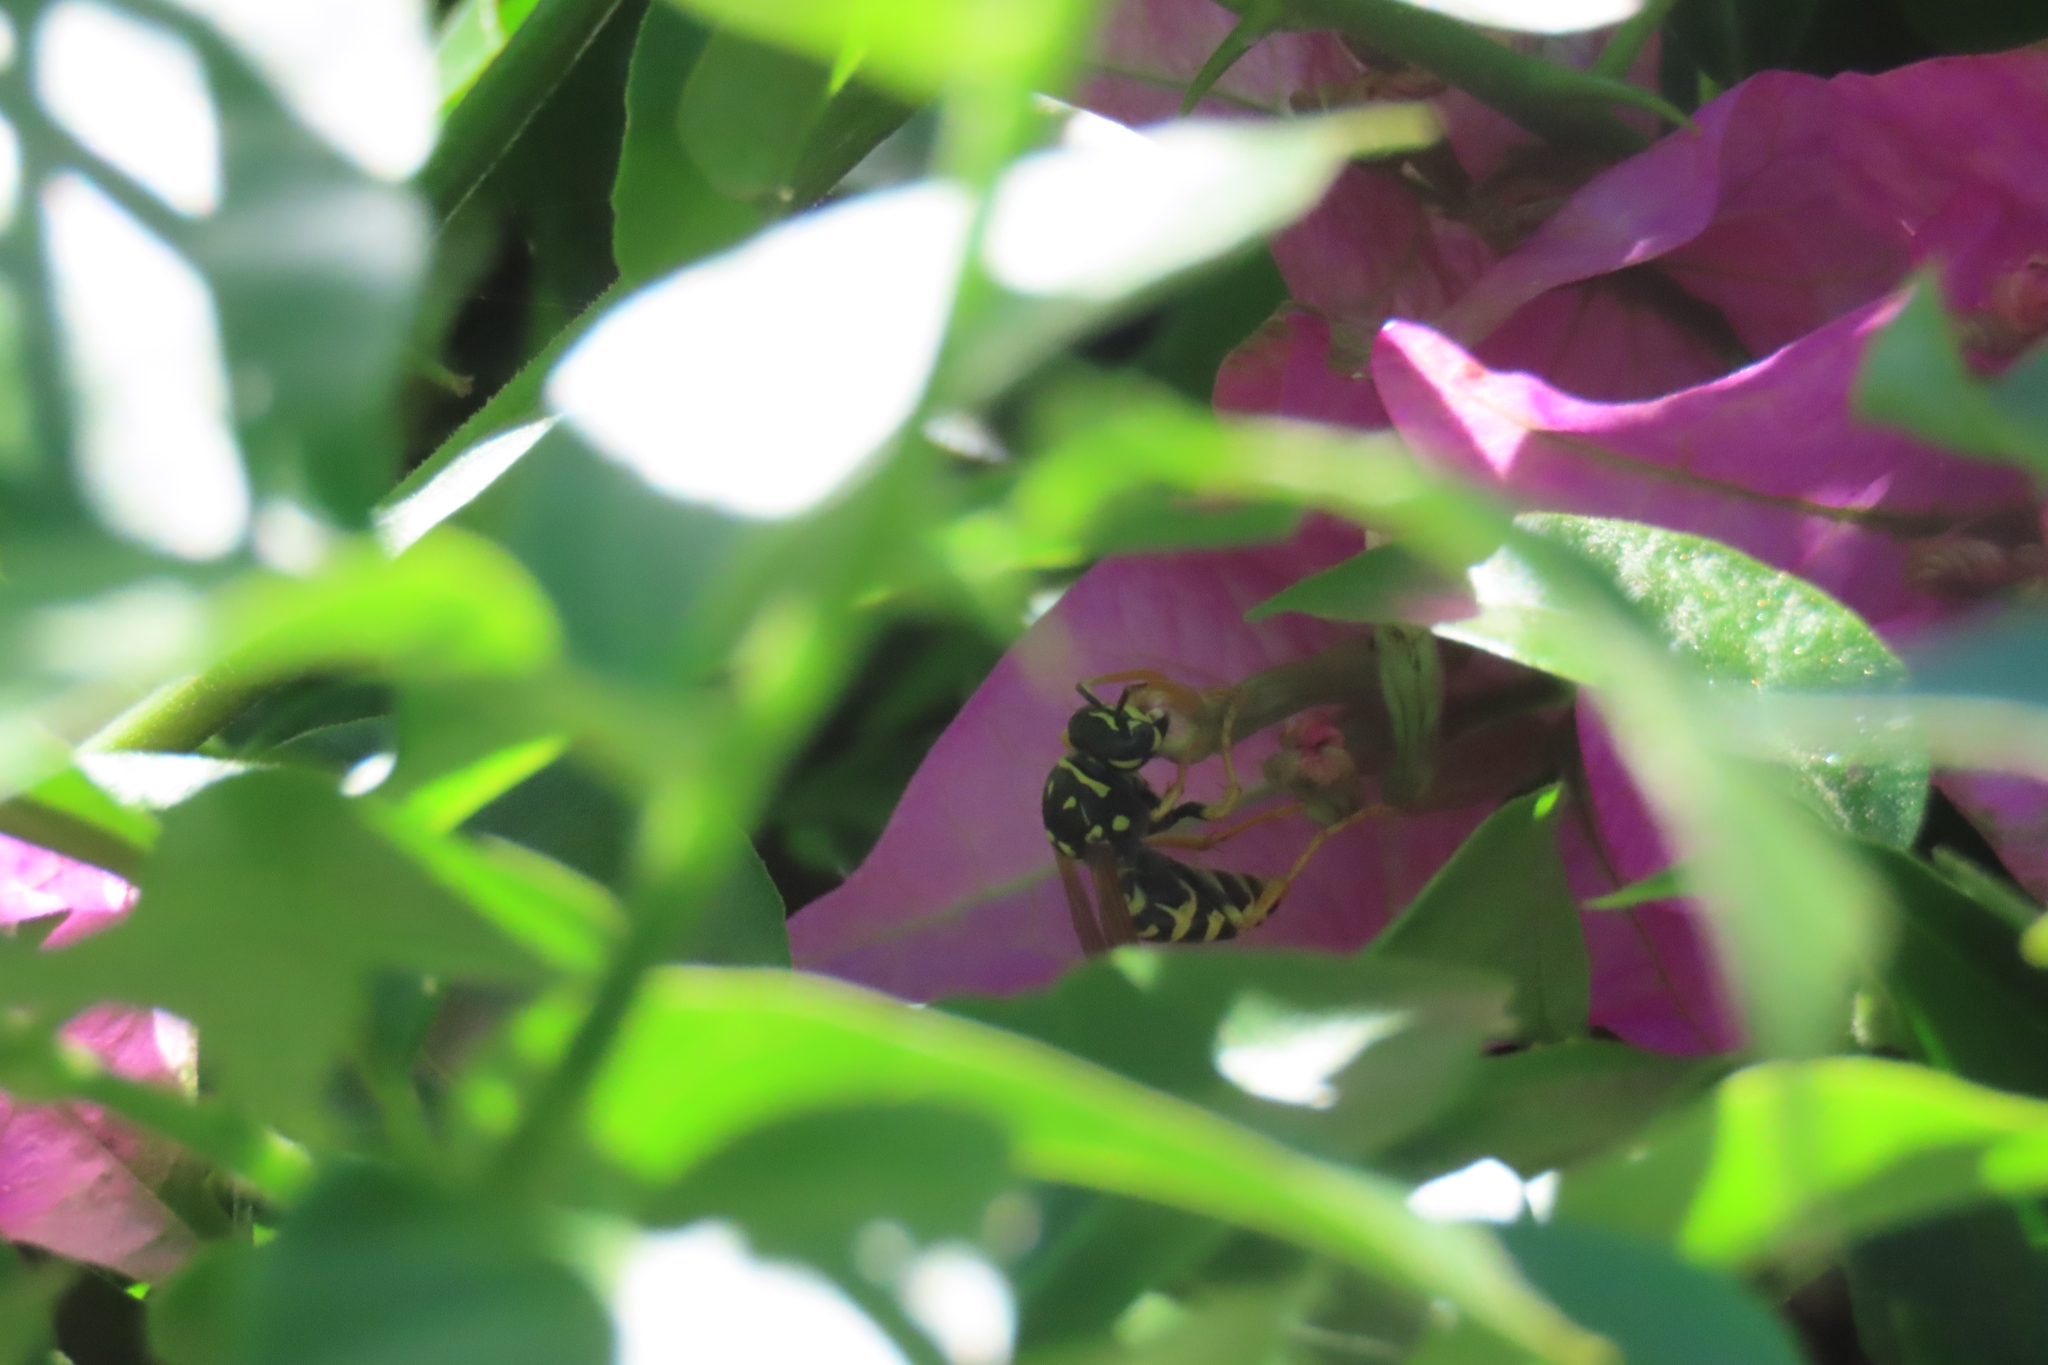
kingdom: Animalia
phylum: Arthropoda
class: Insecta
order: Hymenoptera
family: Eumenidae
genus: Polistes
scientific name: Polistes dominula
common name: Paper wasp
